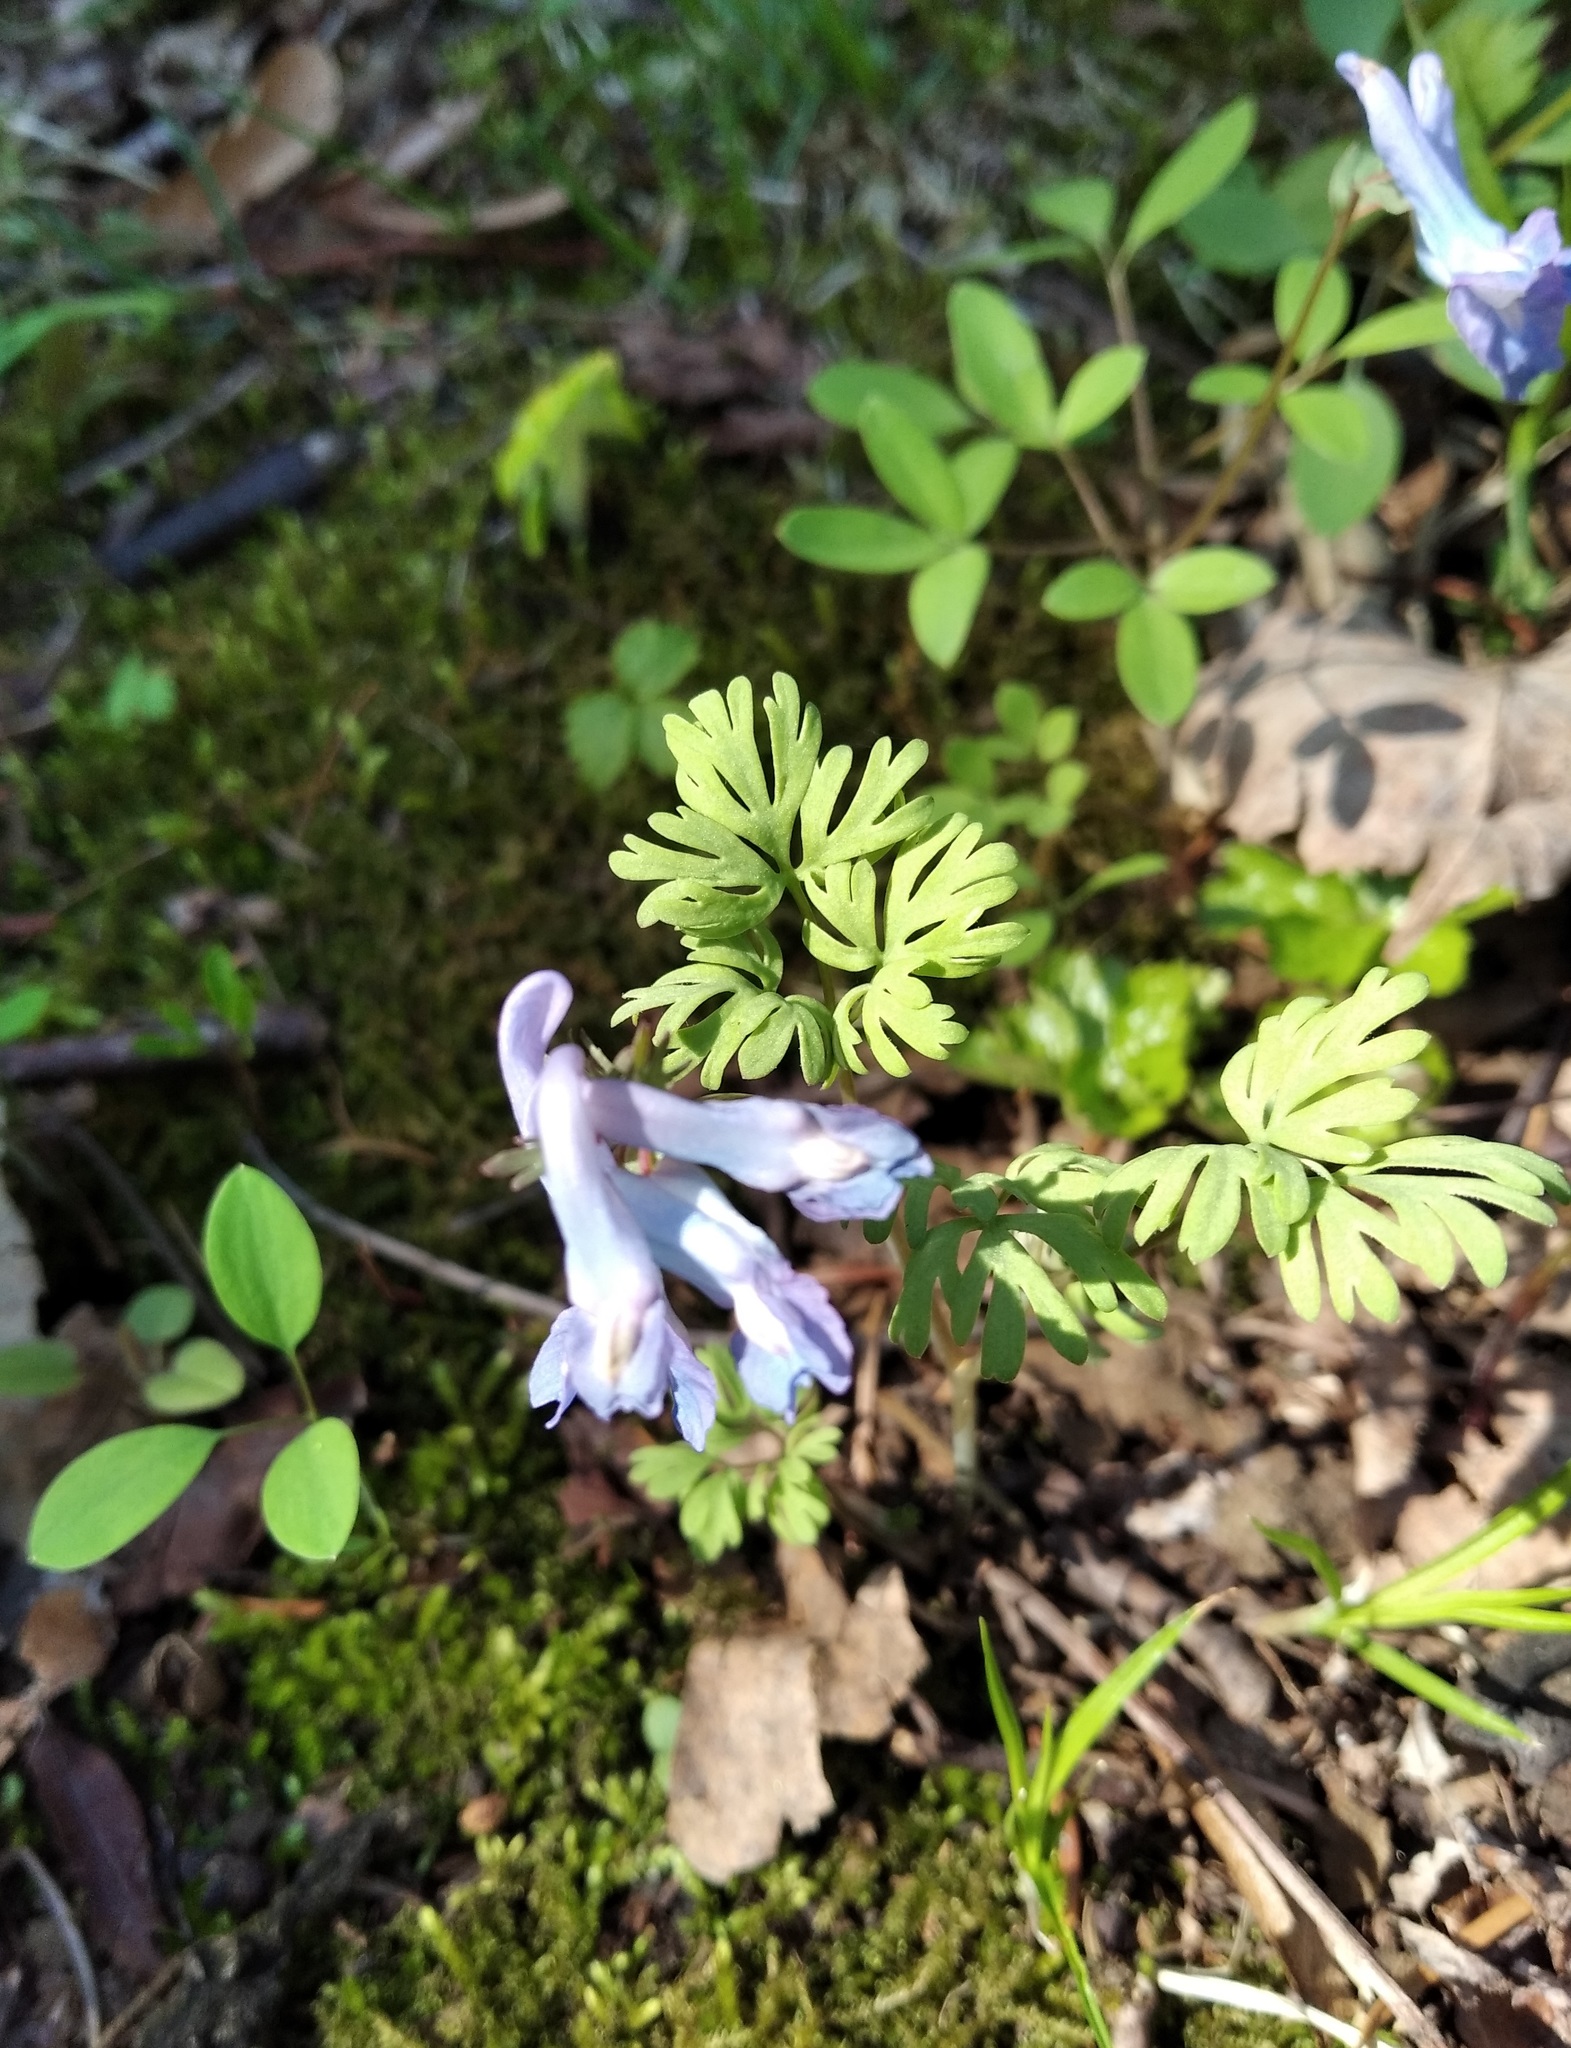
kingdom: Plantae
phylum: Tracheophyta
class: Magnoliopsida
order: Ranunculales
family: Papaveraceae
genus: Corydalis
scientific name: Corydalis fumariifolia
